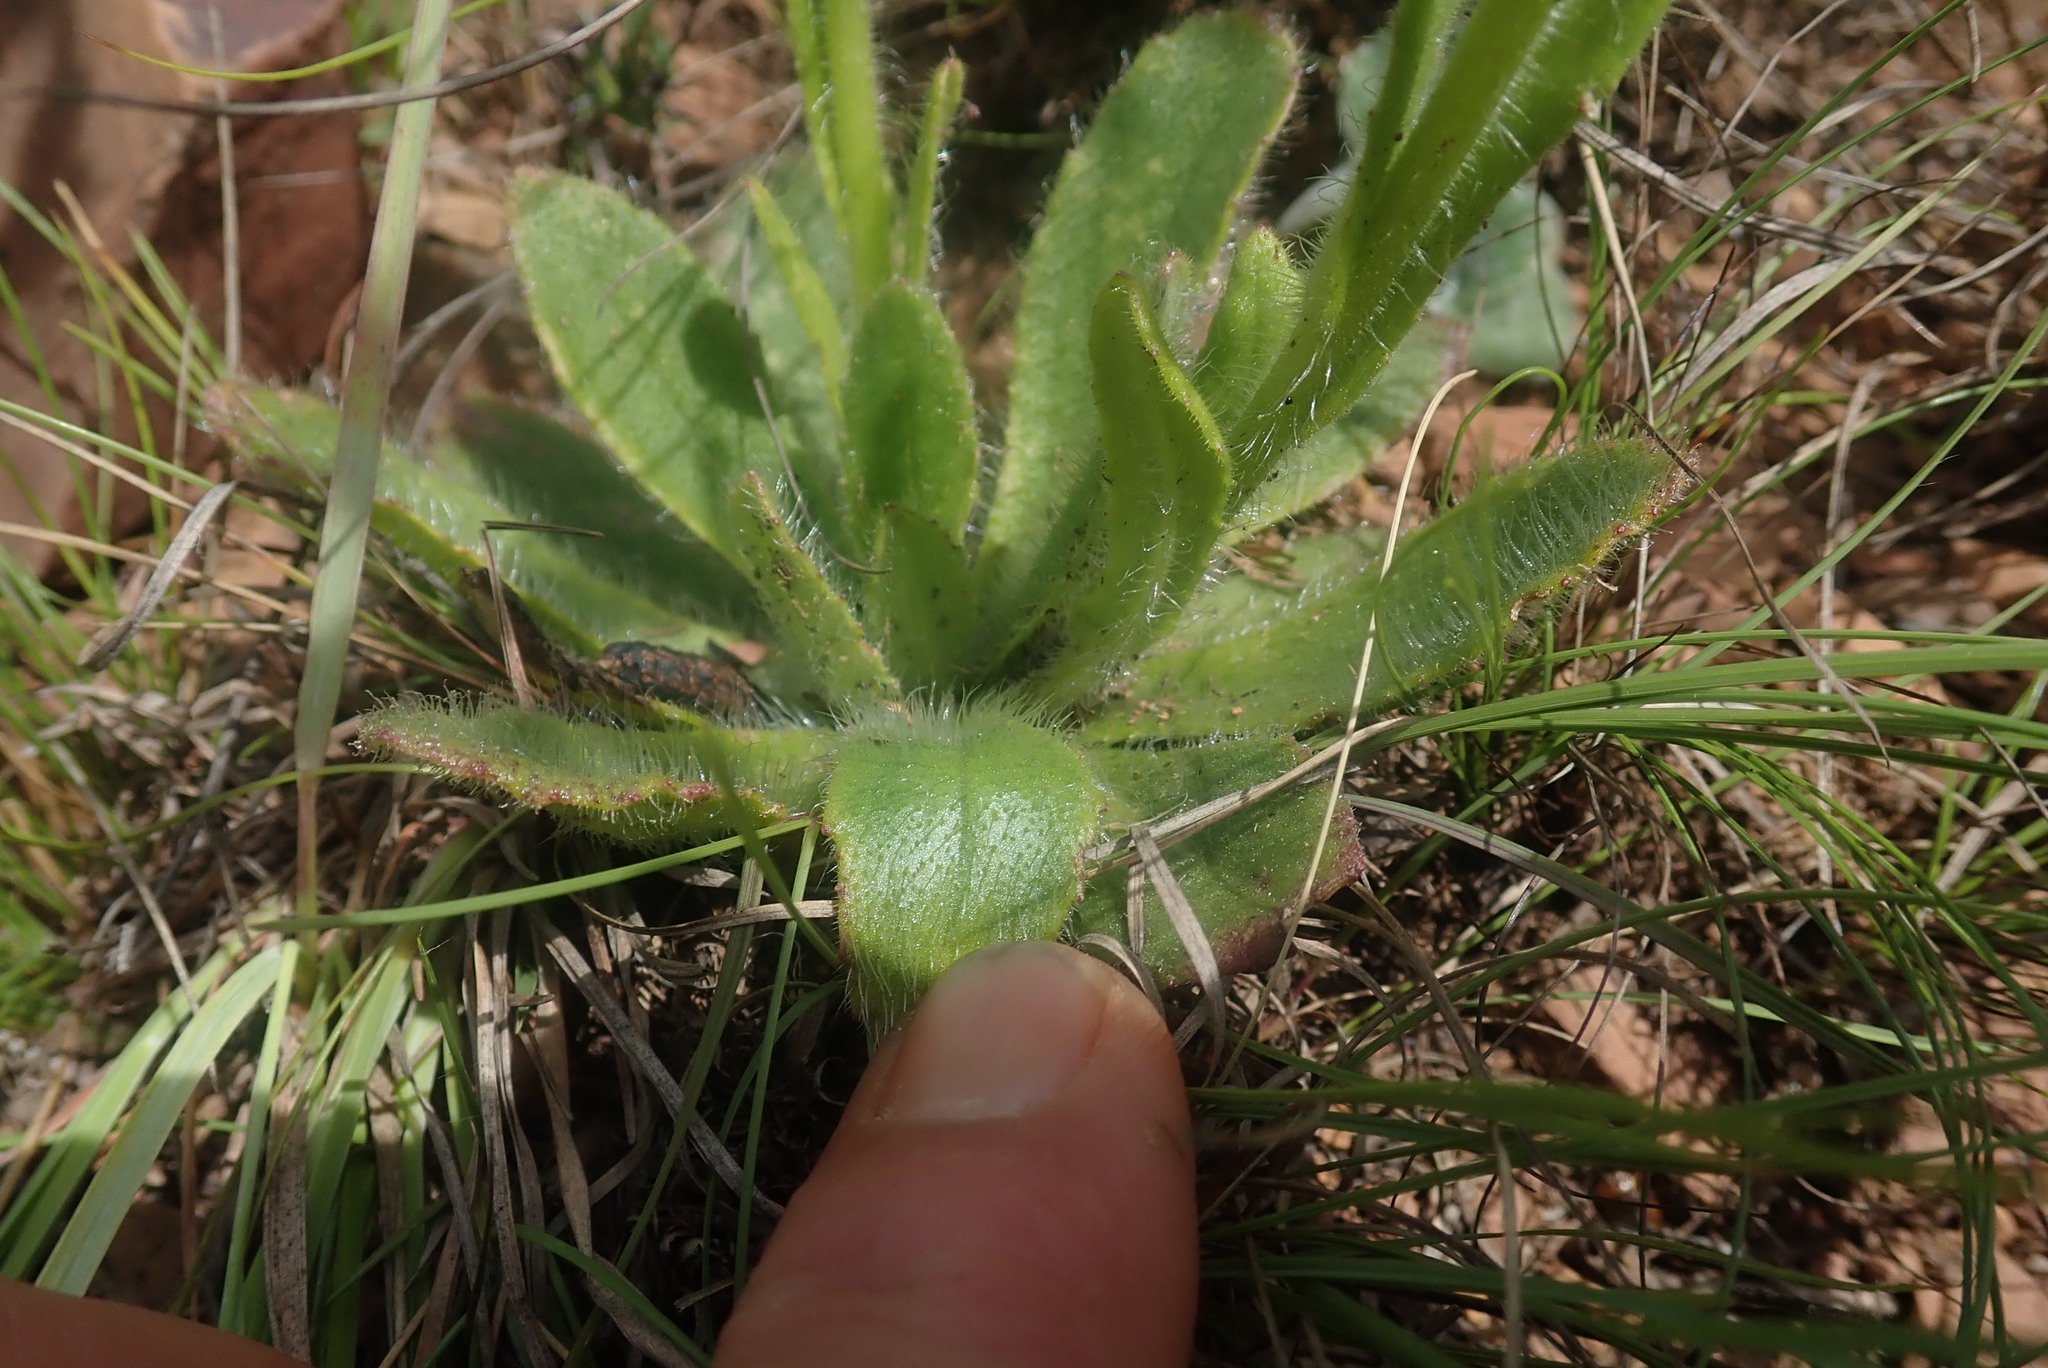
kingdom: Plantae
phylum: Tracheophyta
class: Magnoliopsida
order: Asterales
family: Asteraceae
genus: Senecio
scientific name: Senecio barbatus
